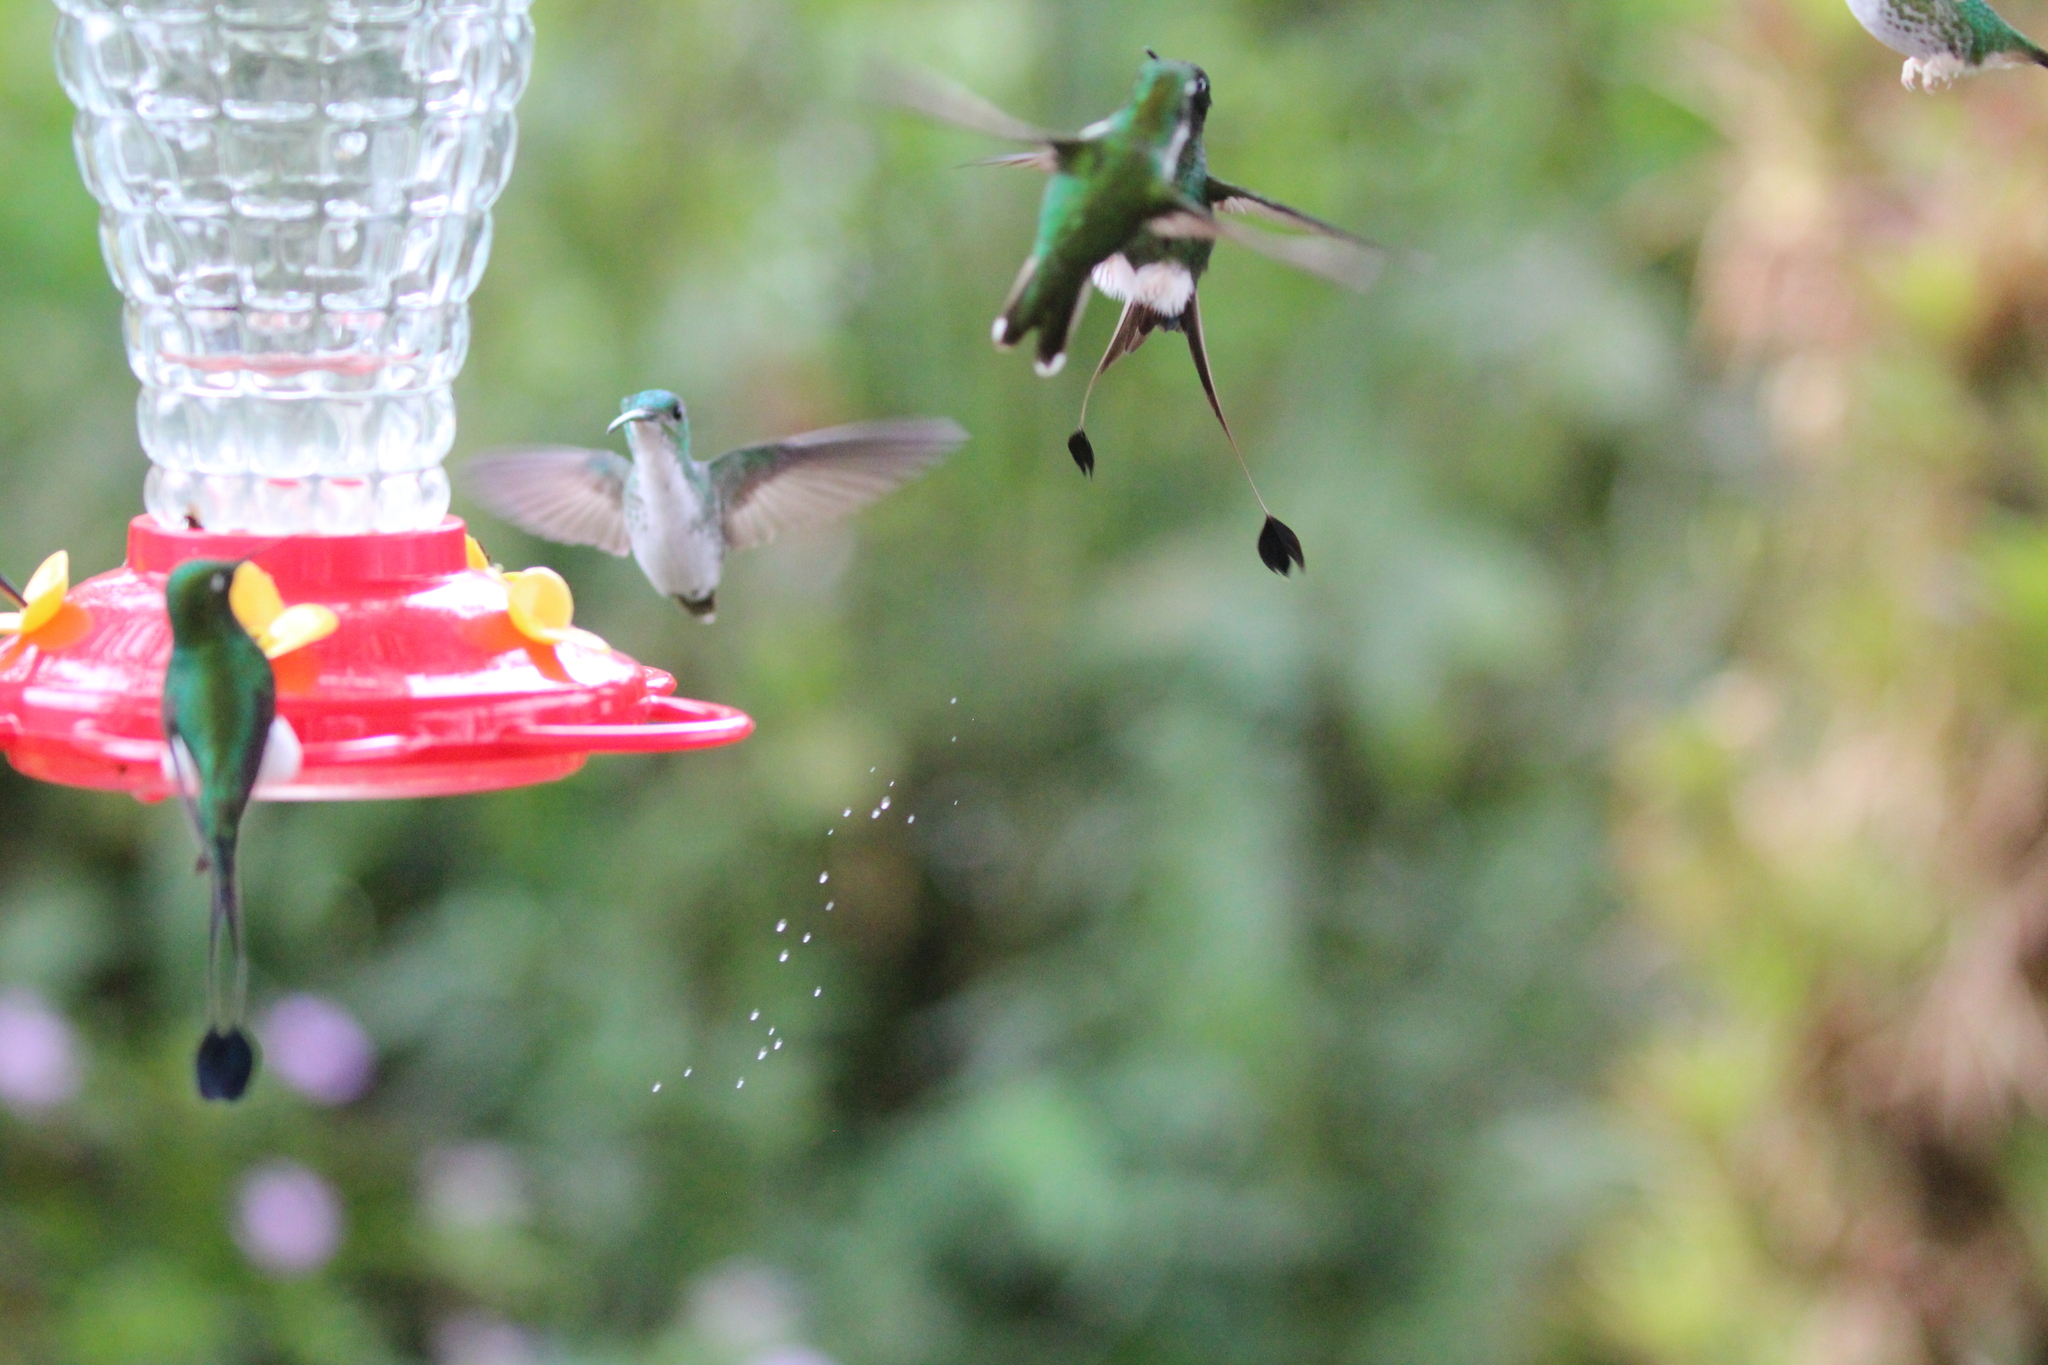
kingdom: Animalia
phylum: Chordata
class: Aves
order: Apodiformes
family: Trochilidae
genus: Ocreatus
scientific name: Ocreatus underwoodii
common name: Booted racket-tail
